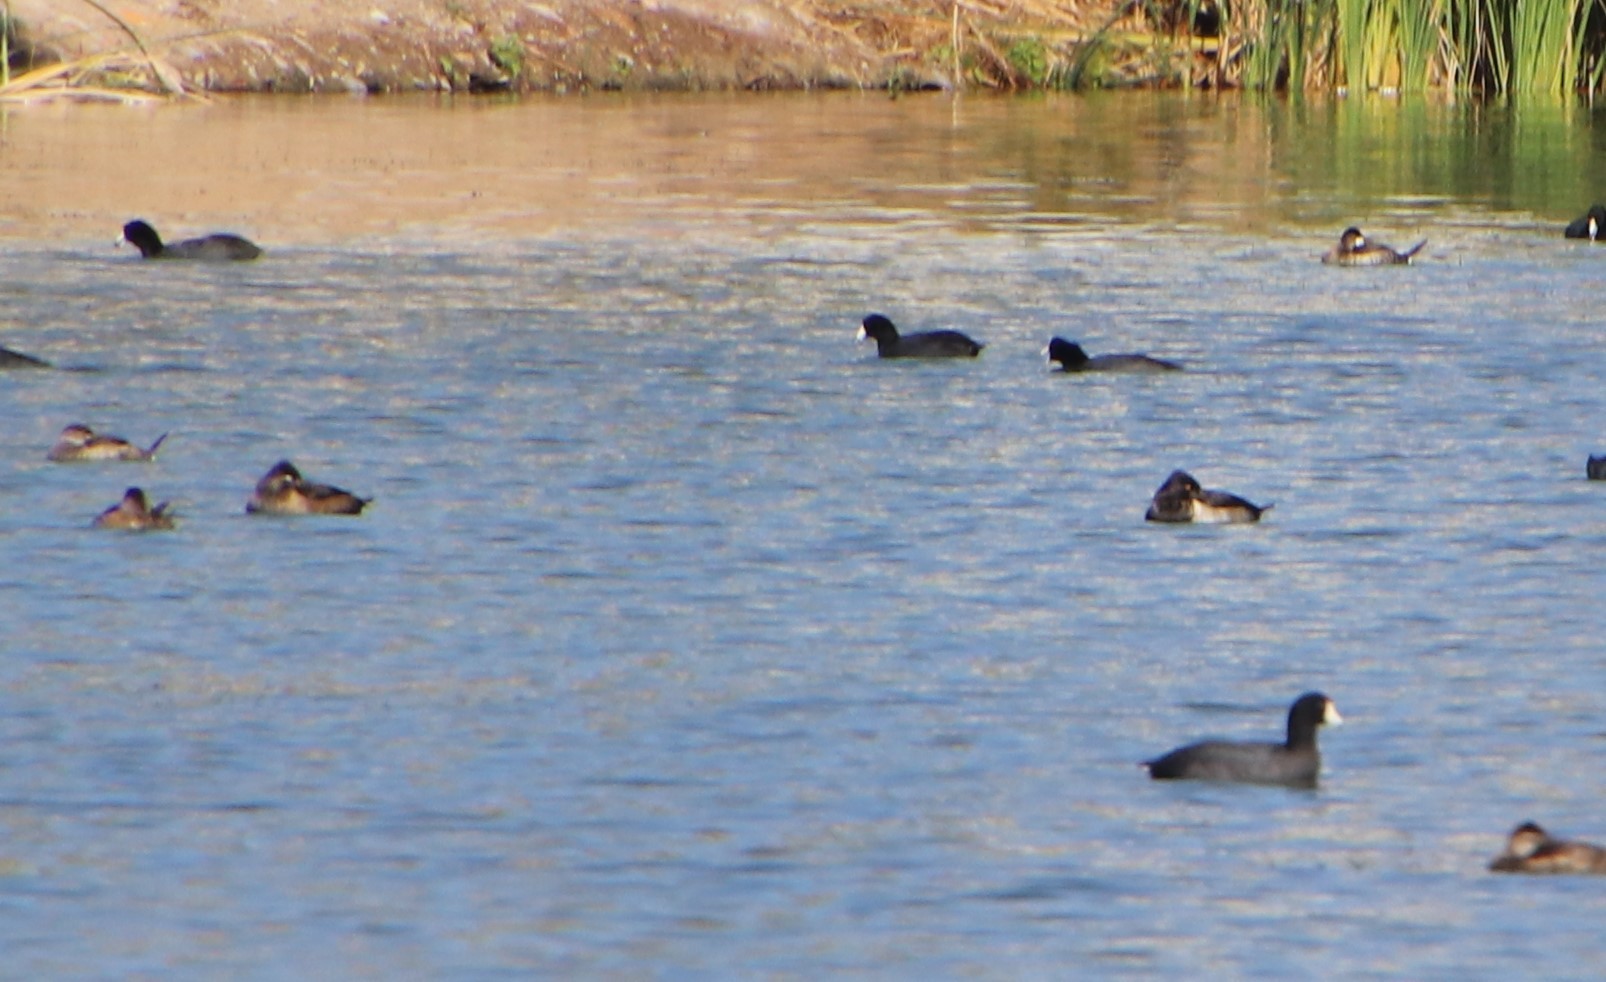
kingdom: Animalia
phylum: Chordata
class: Aves
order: Anseriformes
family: Anatidae
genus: Aythya
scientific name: Aythya collaris
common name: Ring-necked duck
